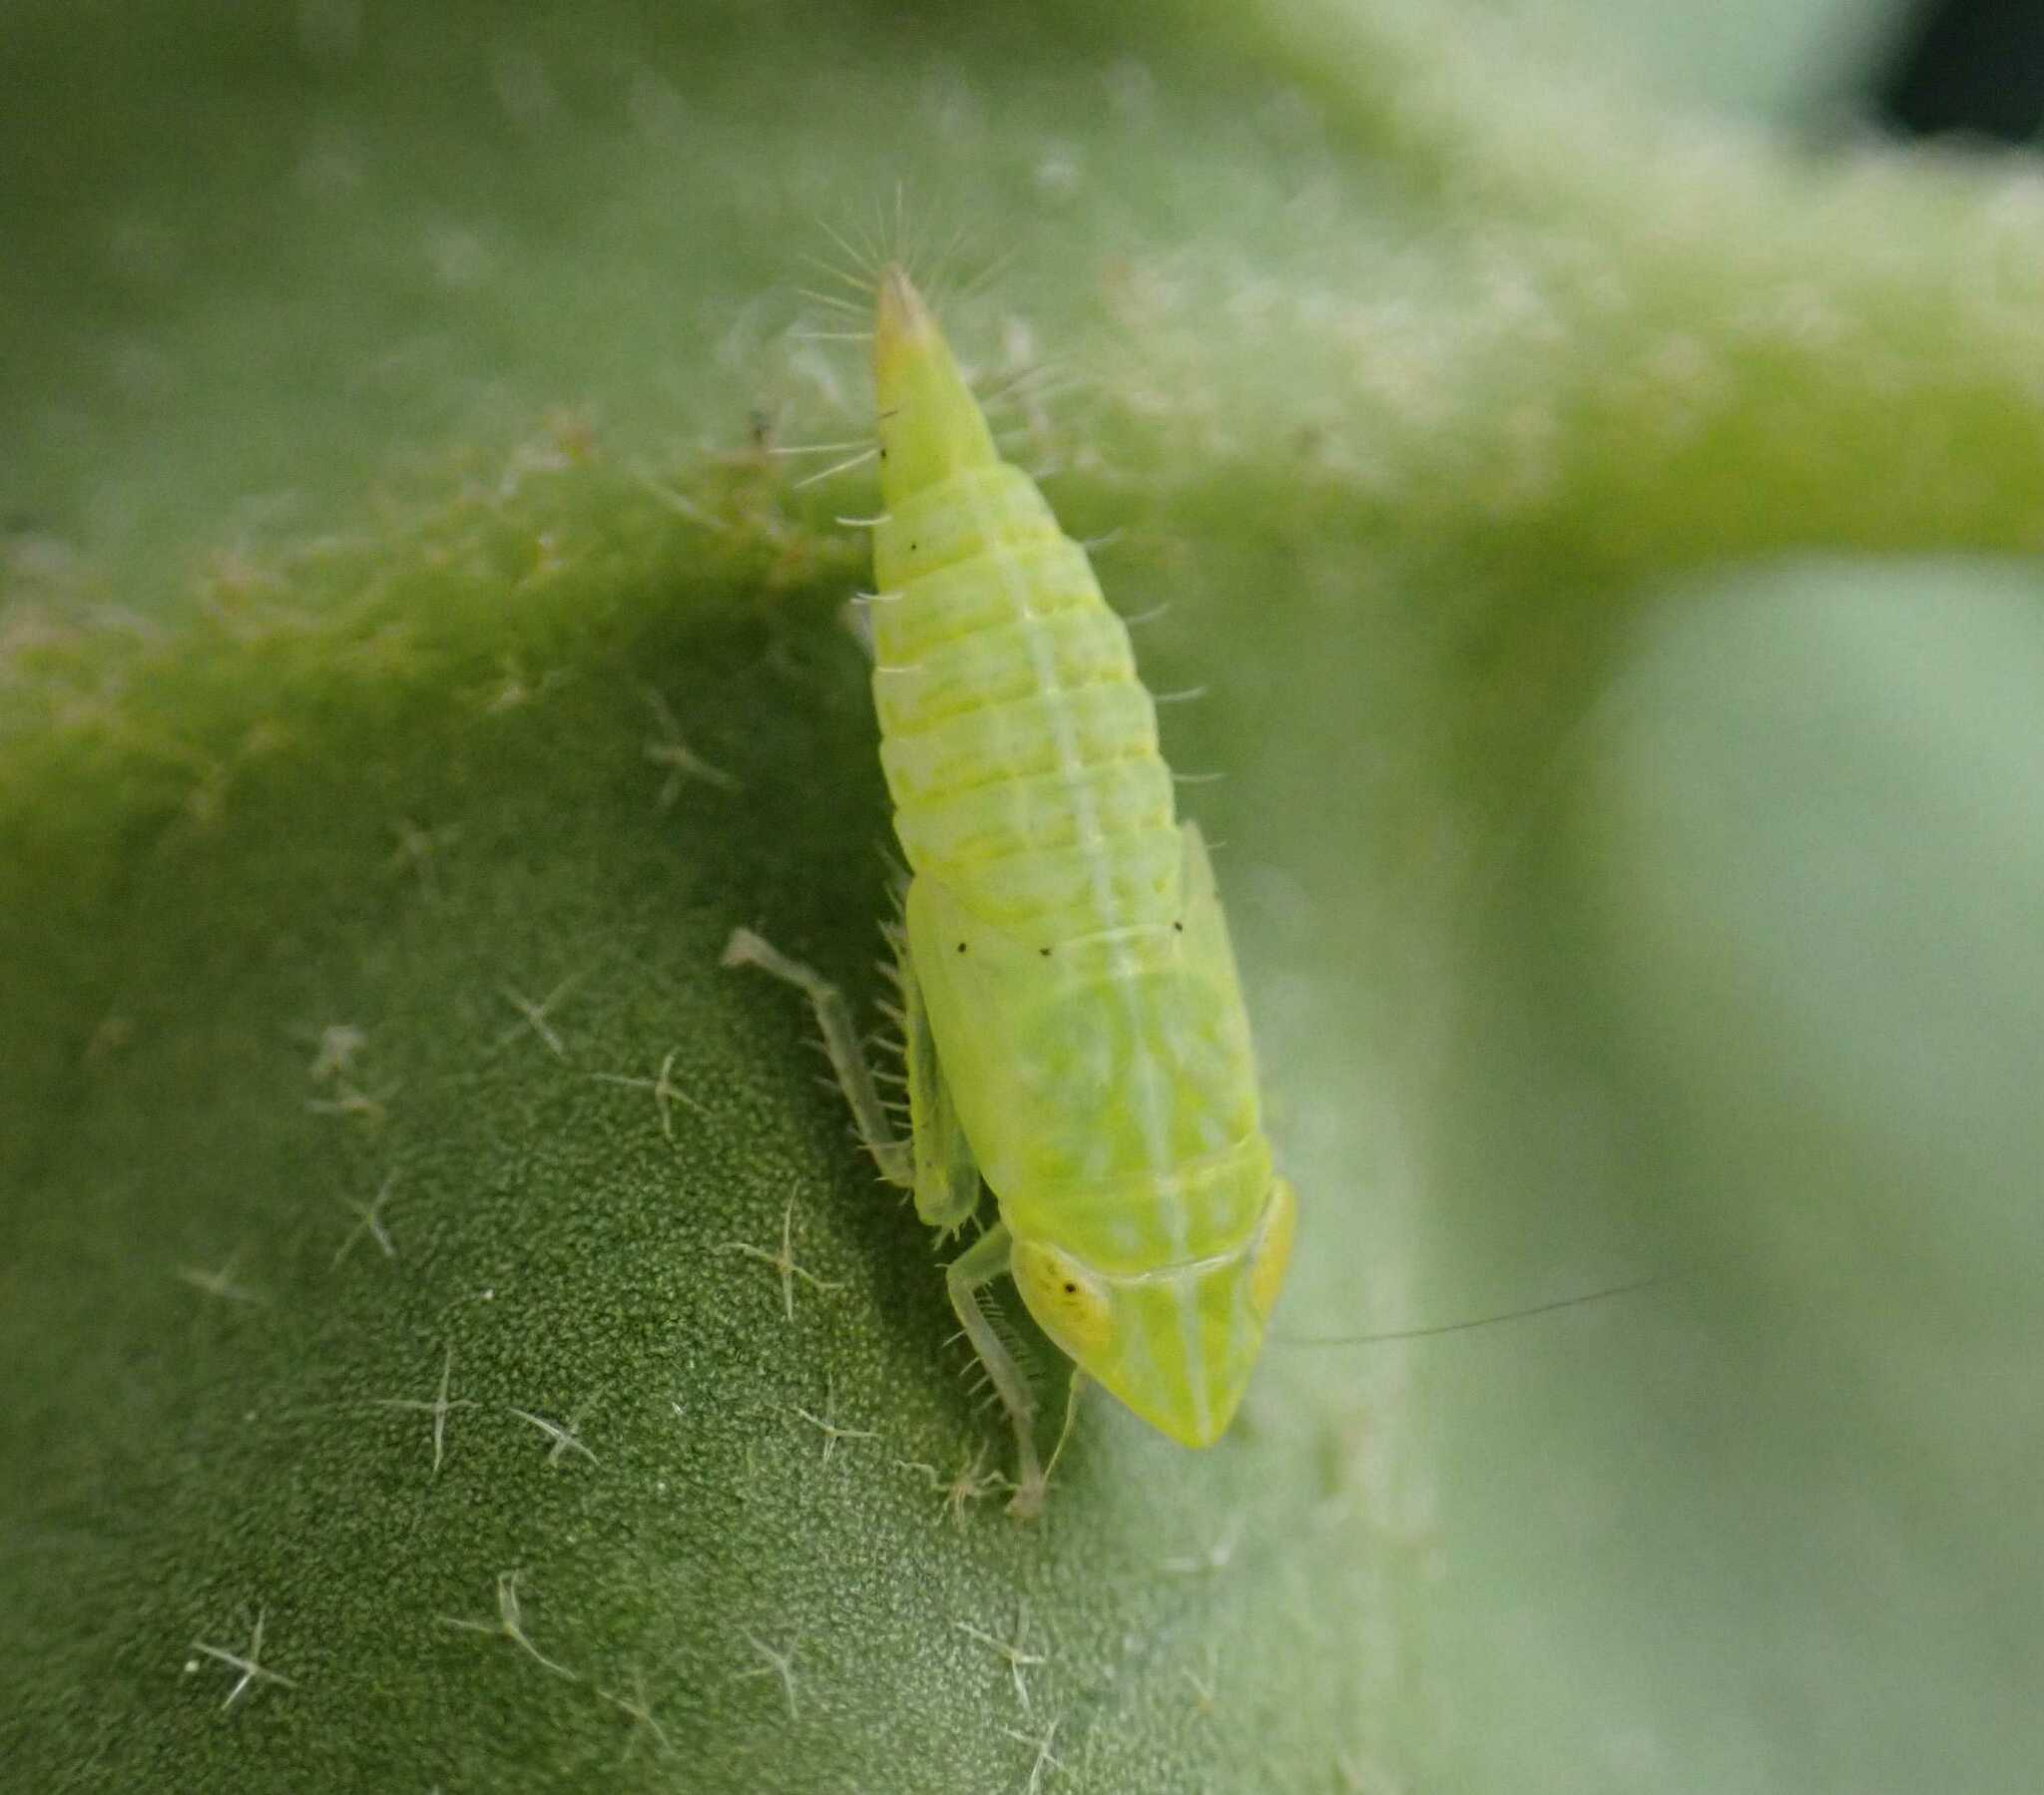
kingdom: Animalia
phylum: Arthropoda
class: Insecta
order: Hemiptera
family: Cicadellidae
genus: Synophropsis
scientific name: Synophropsis lauri
